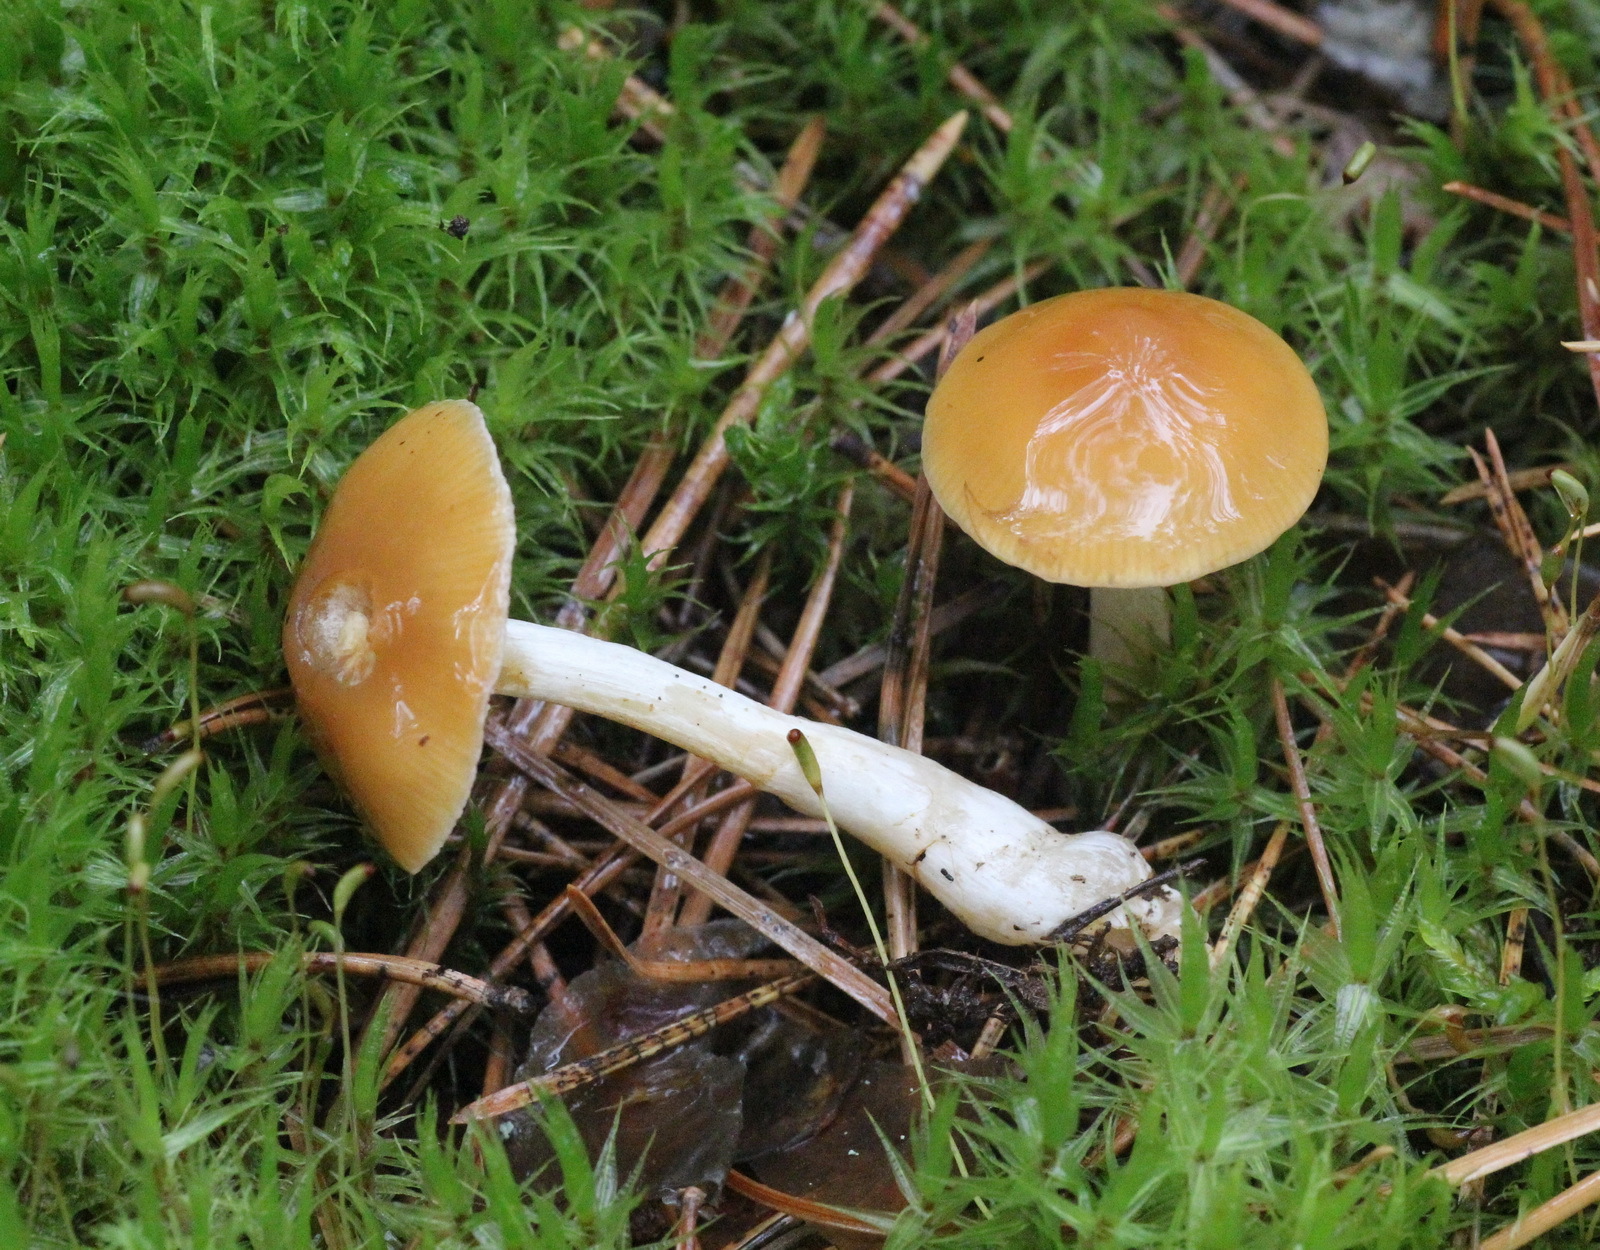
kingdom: Fungi
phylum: Basidiomycota
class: Agaricomycetes
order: Agaricales
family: Cortinariaceae
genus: Thaxterogaster
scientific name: Thaxterogaster vibratilis
